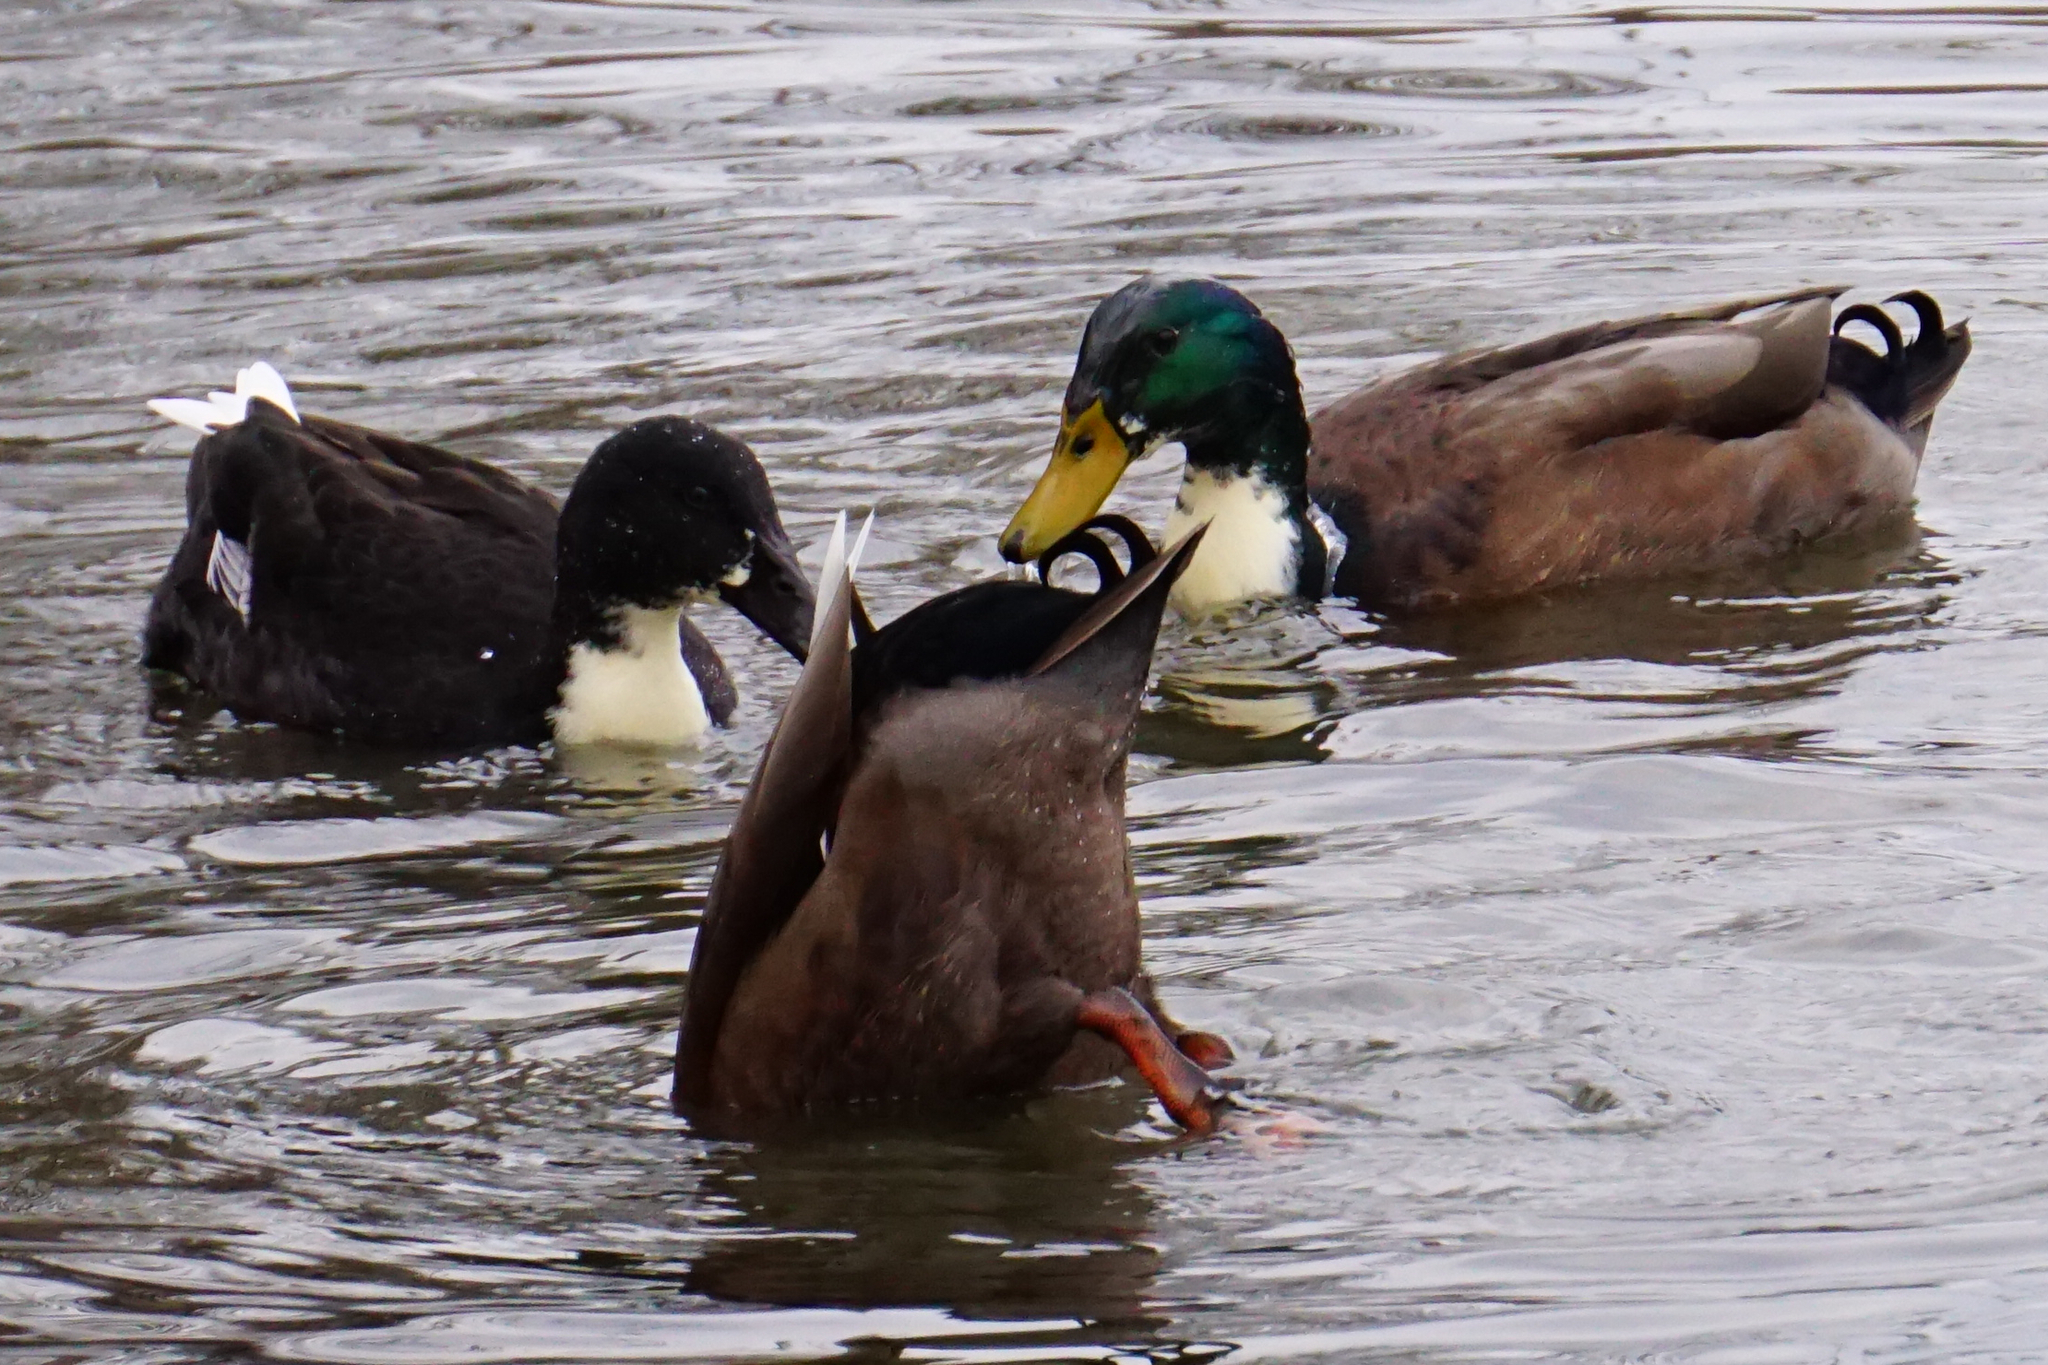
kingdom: Animalia
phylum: Chordata
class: Aves
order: Anseriformes
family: Anatidae
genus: Anas
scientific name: Anas platyrhynchos
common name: Mallard
